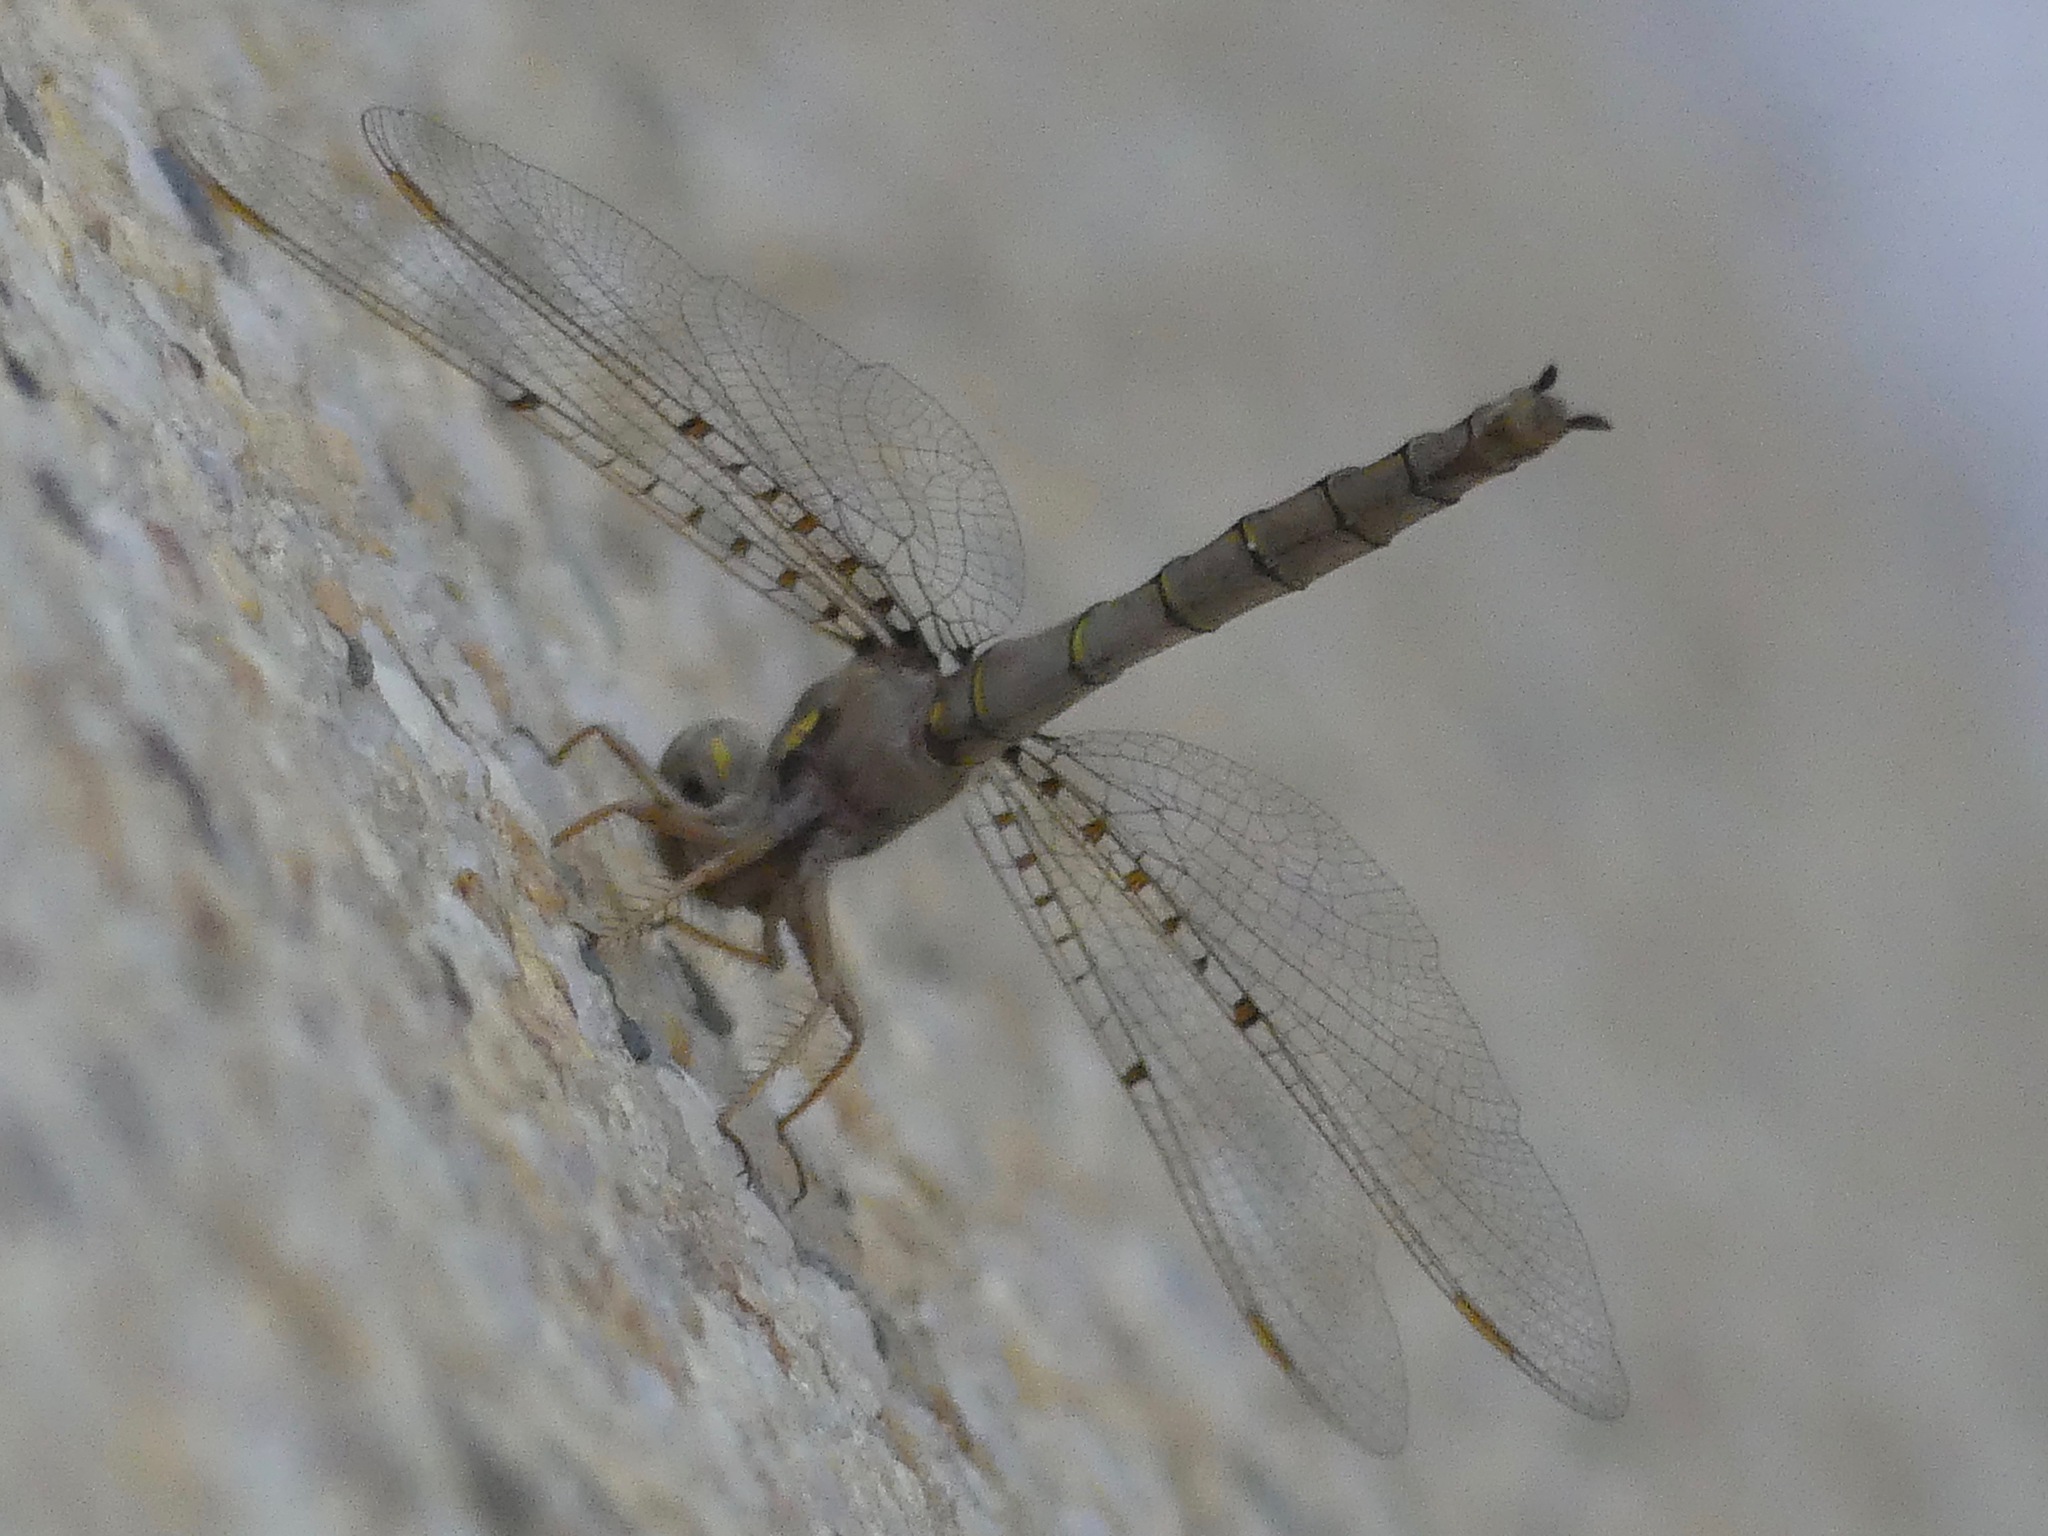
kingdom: Animalia
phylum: Arthropoda
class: Insecta
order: Odonata
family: Corduliidae
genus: Neurocordulia
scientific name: Neurocordulia molesta
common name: Smoky shadowdragon
